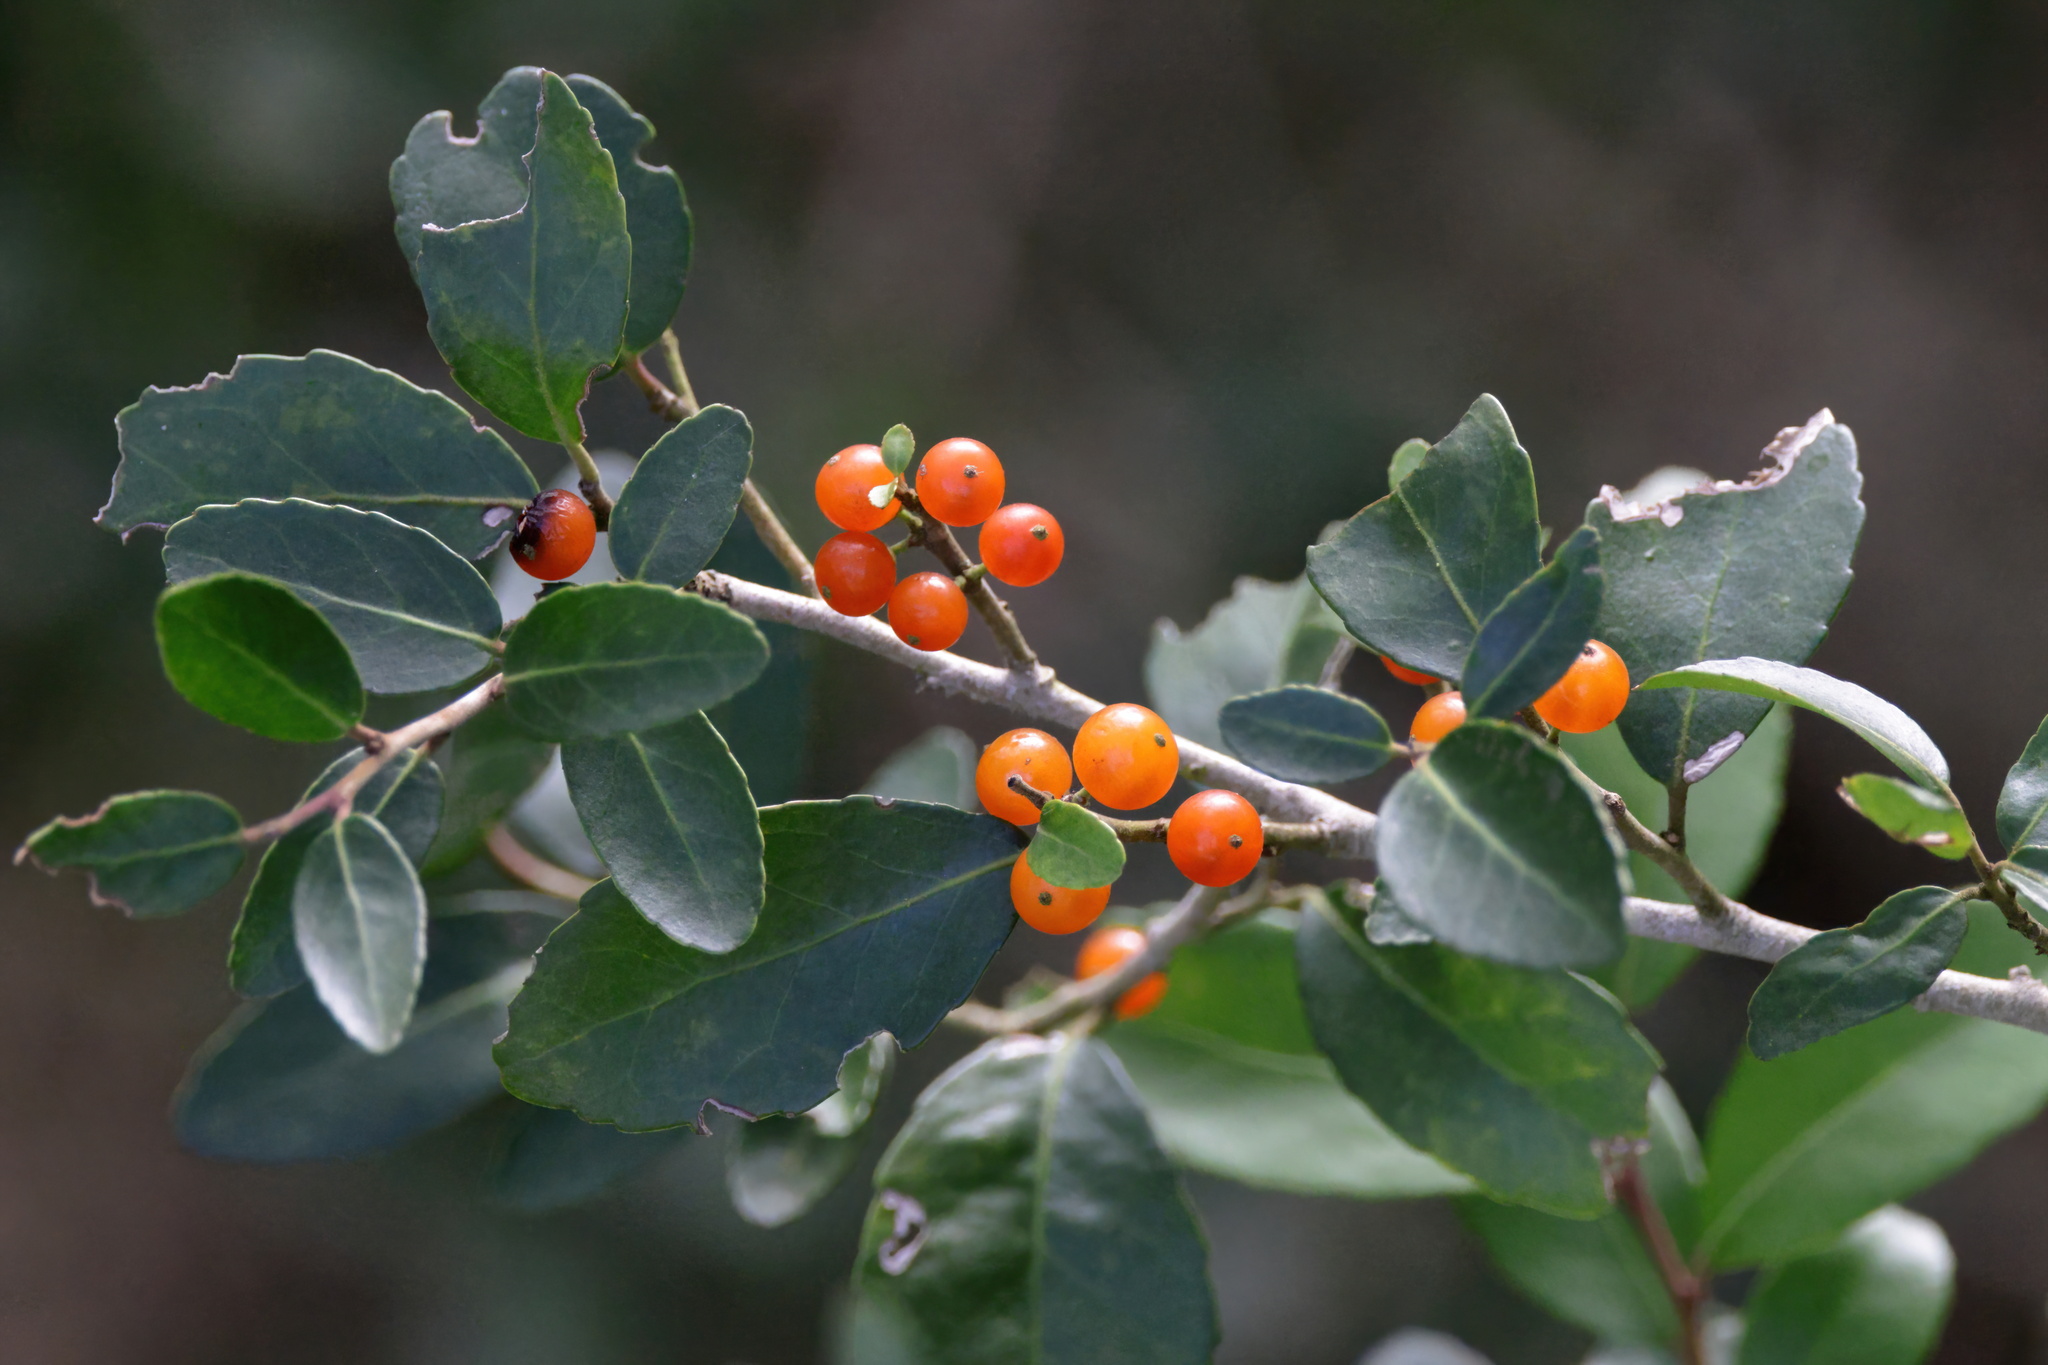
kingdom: Plantae
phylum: Tracheophyta
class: Magnoliopsida
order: Aquifoliales
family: Aquifoliaceae
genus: Ilex
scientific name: Ilex vomitoria
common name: Yaupon holly
